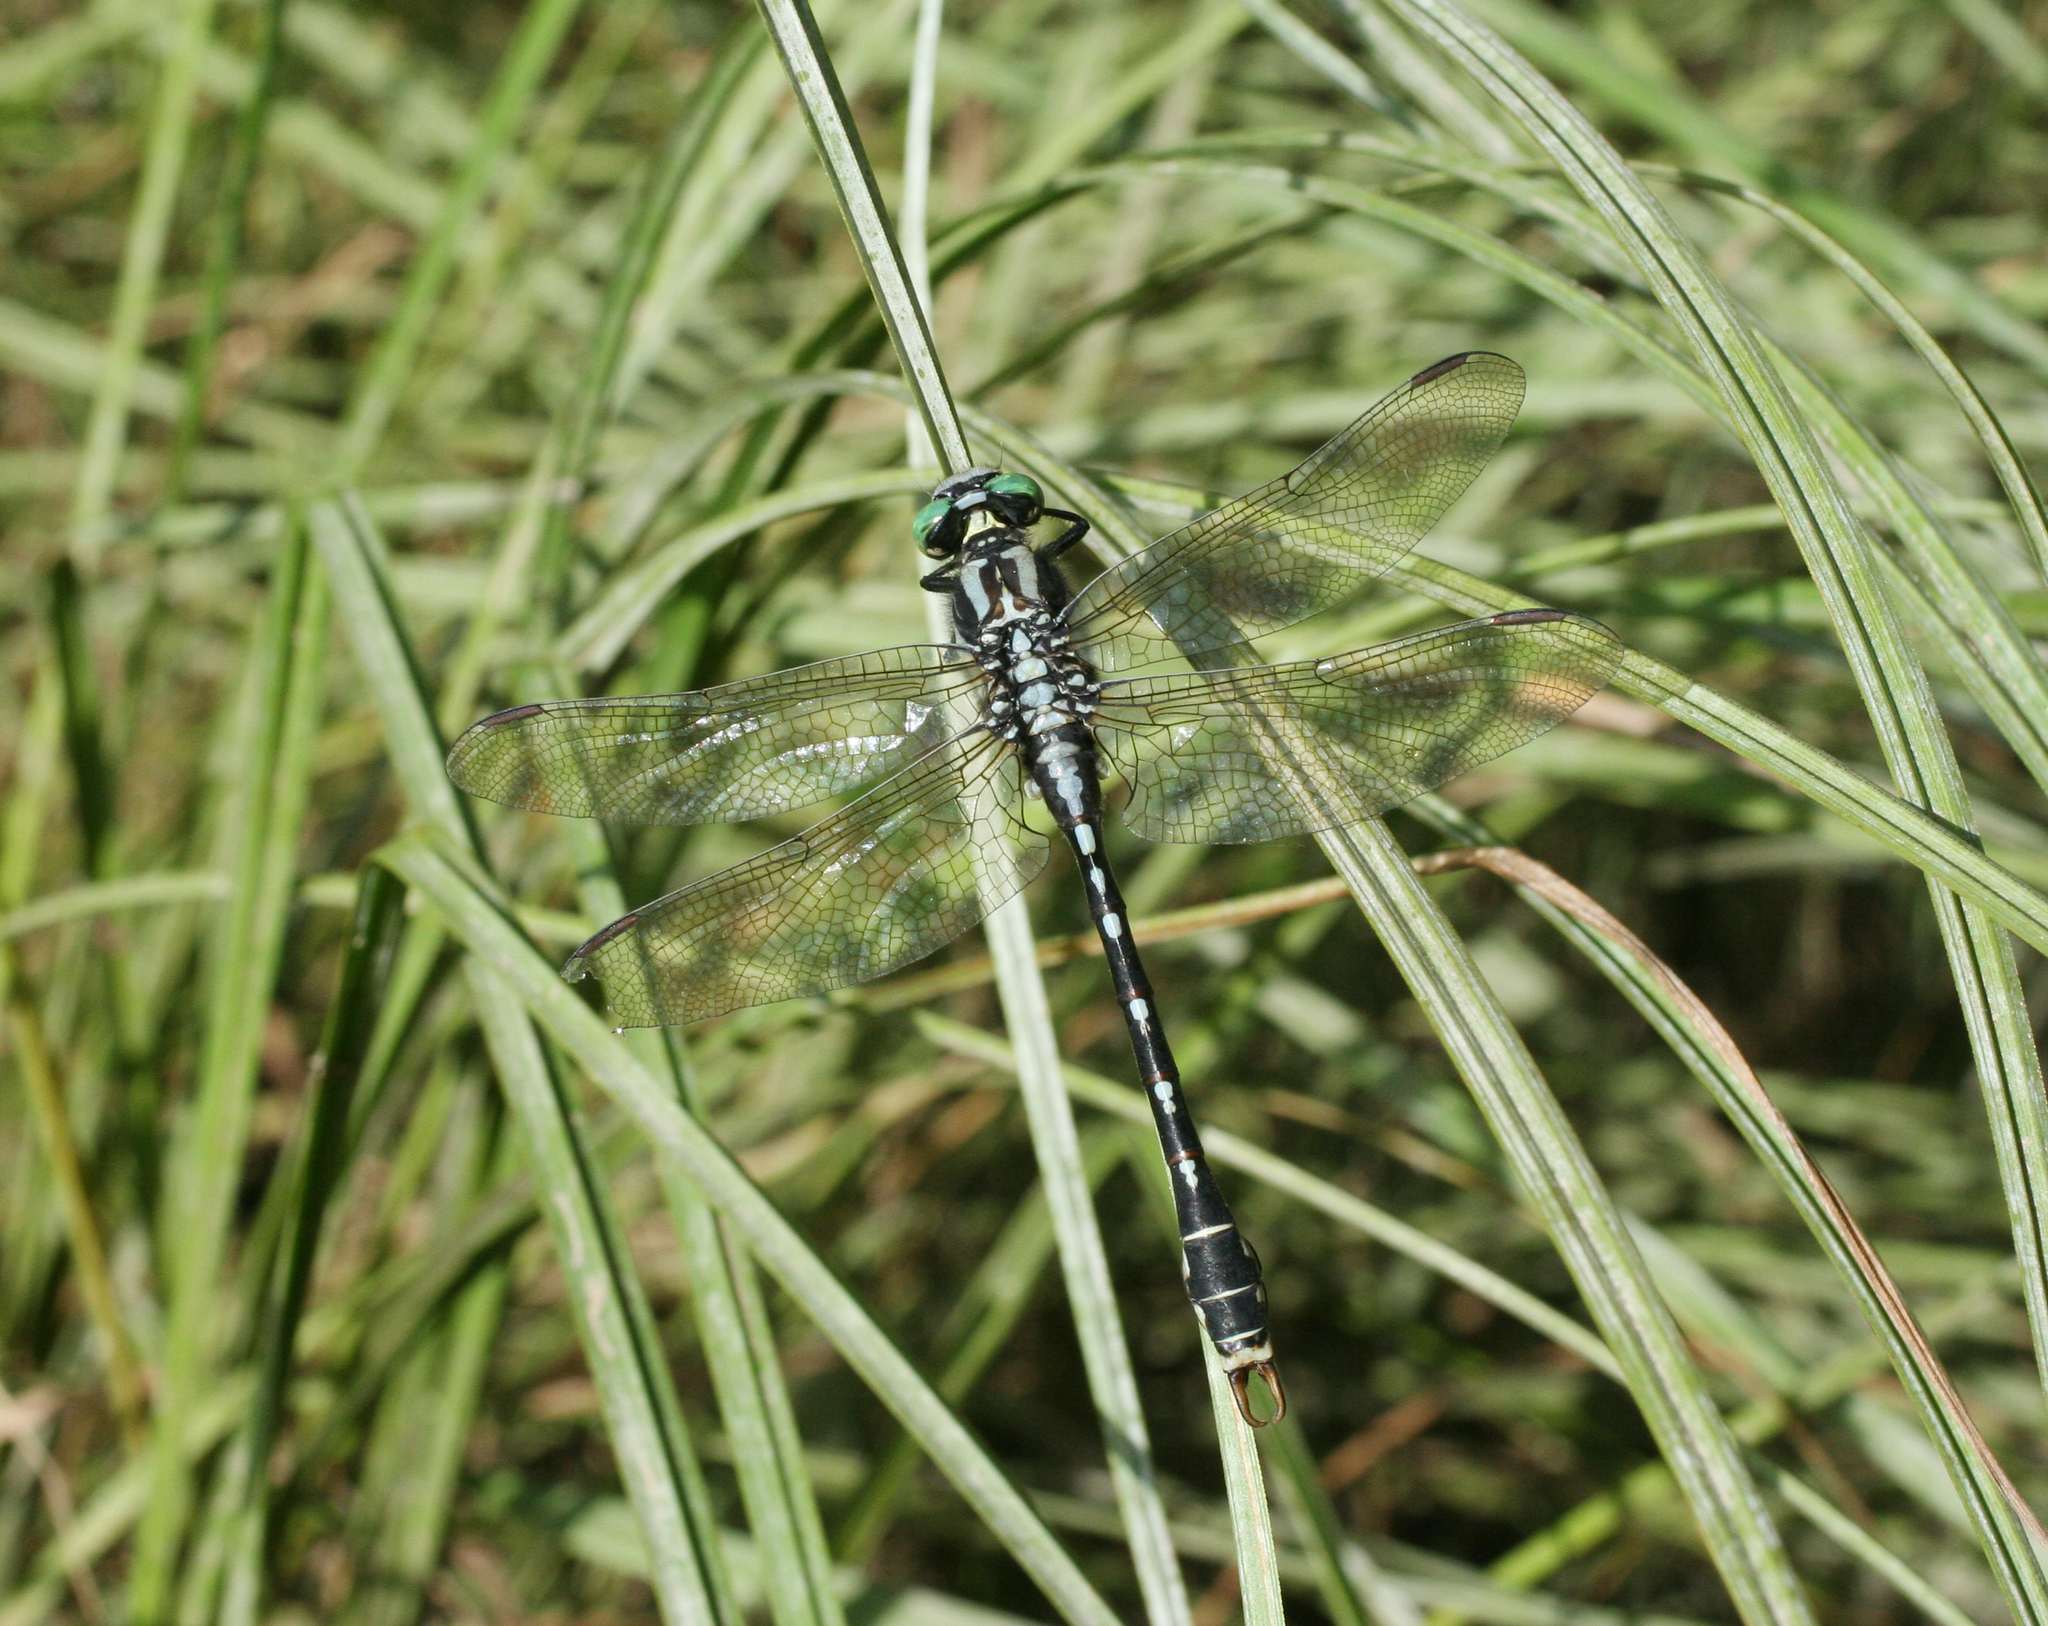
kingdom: Animalia
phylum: Arthropoda
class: Insecta
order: Odonata
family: Gomphidae
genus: Nihonogomphus
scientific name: Nihonogomphus ruptus
